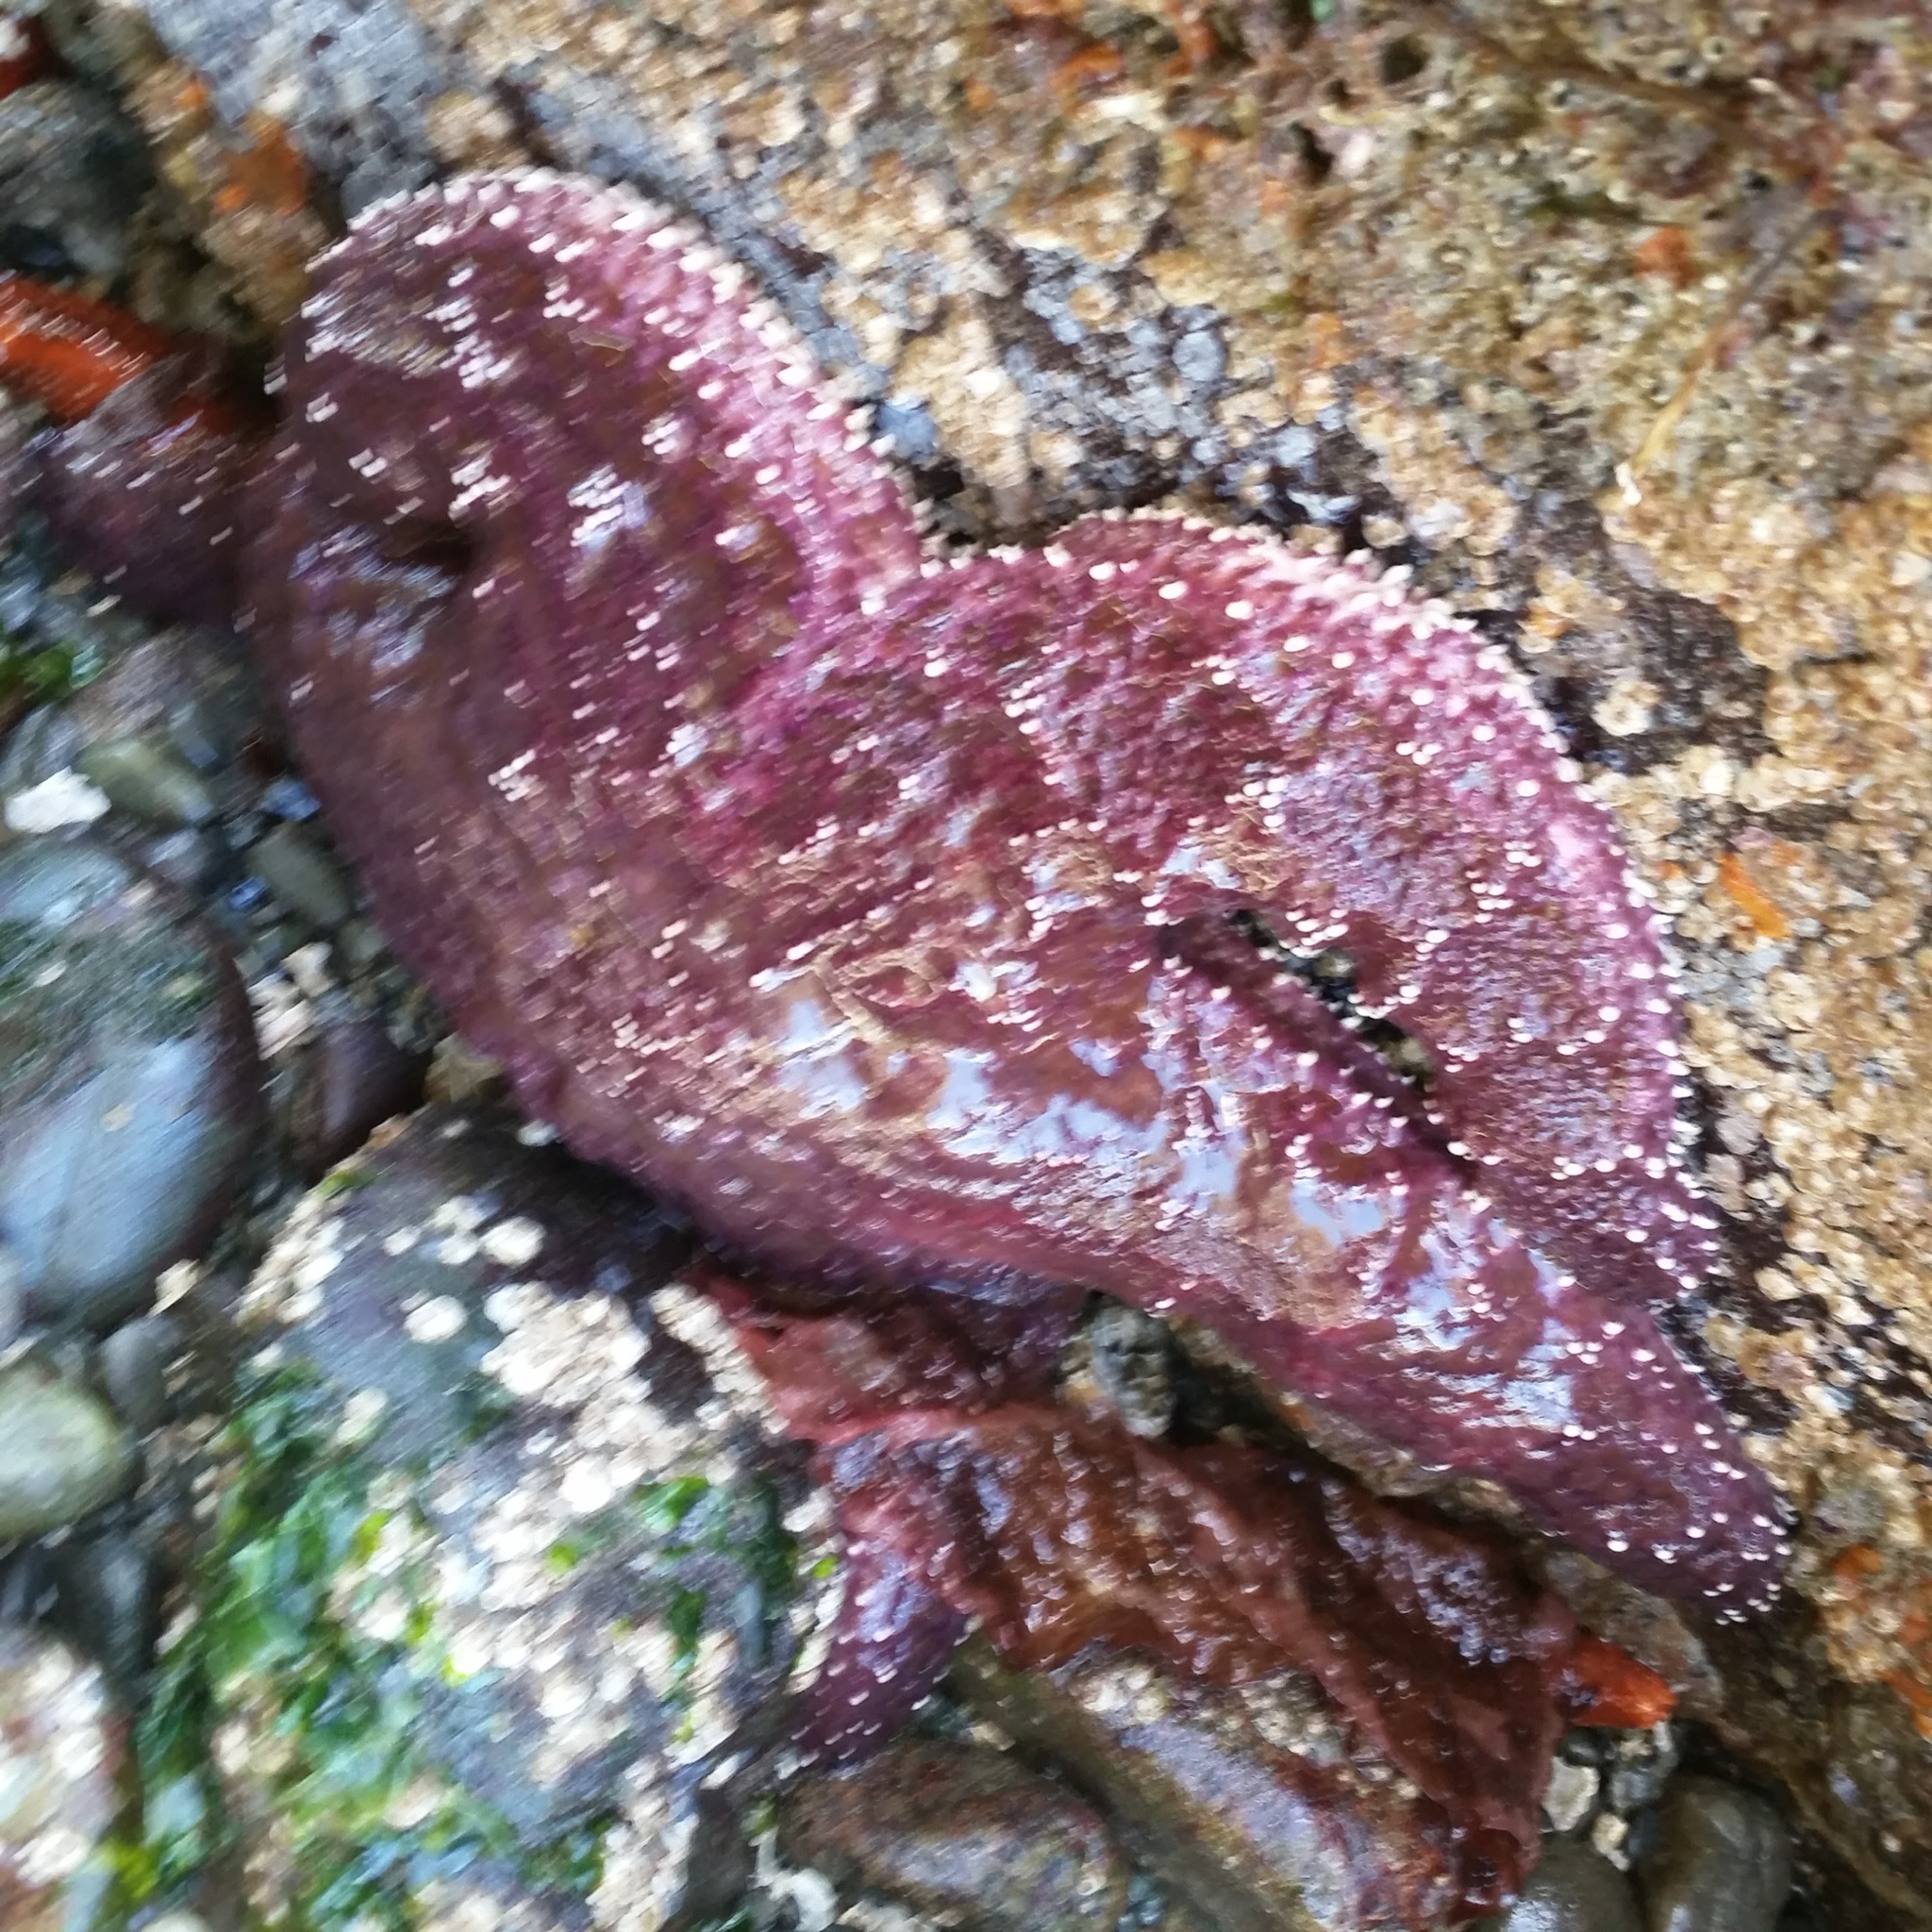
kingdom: Animalia
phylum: Echinodermata
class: Asteroidea
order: Forcipulatida
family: Asteriidae
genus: Pisaster
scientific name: Pisaster ochraceus
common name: Ochre stars
